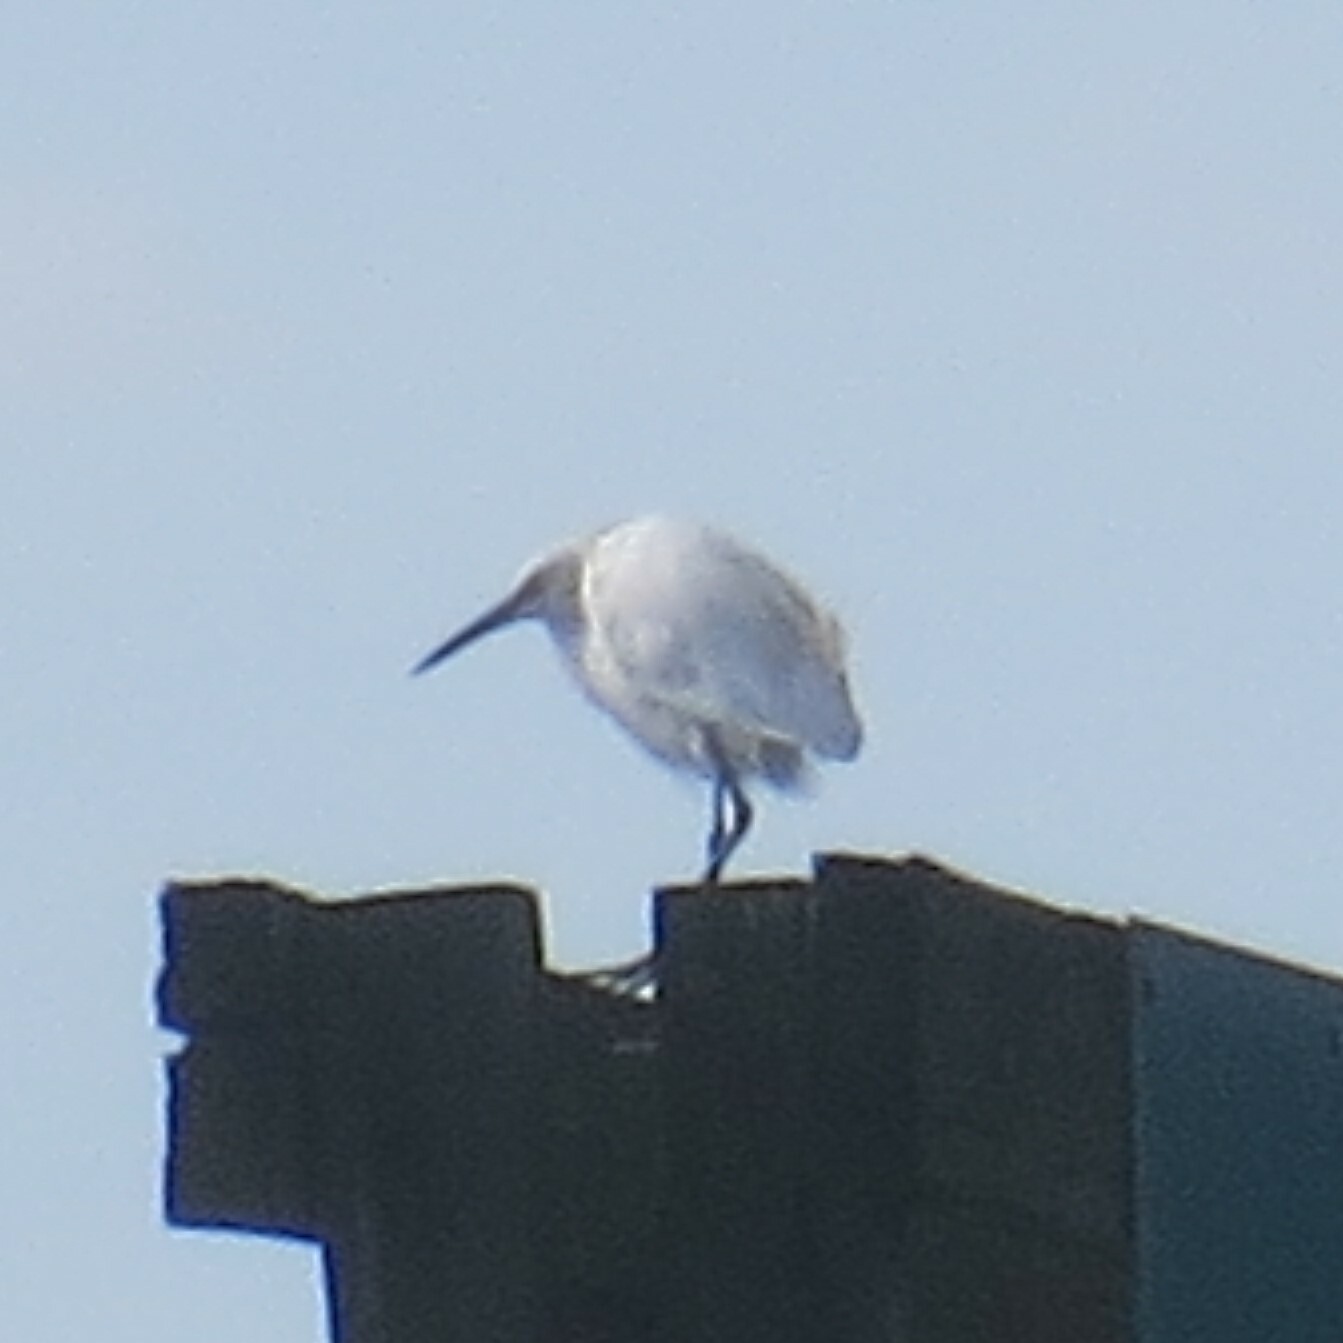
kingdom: Animalia
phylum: Chordata
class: Aves
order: Pelecaniformes
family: Ardeidae
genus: Egretta
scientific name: Egretta thula
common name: Snowy egret
